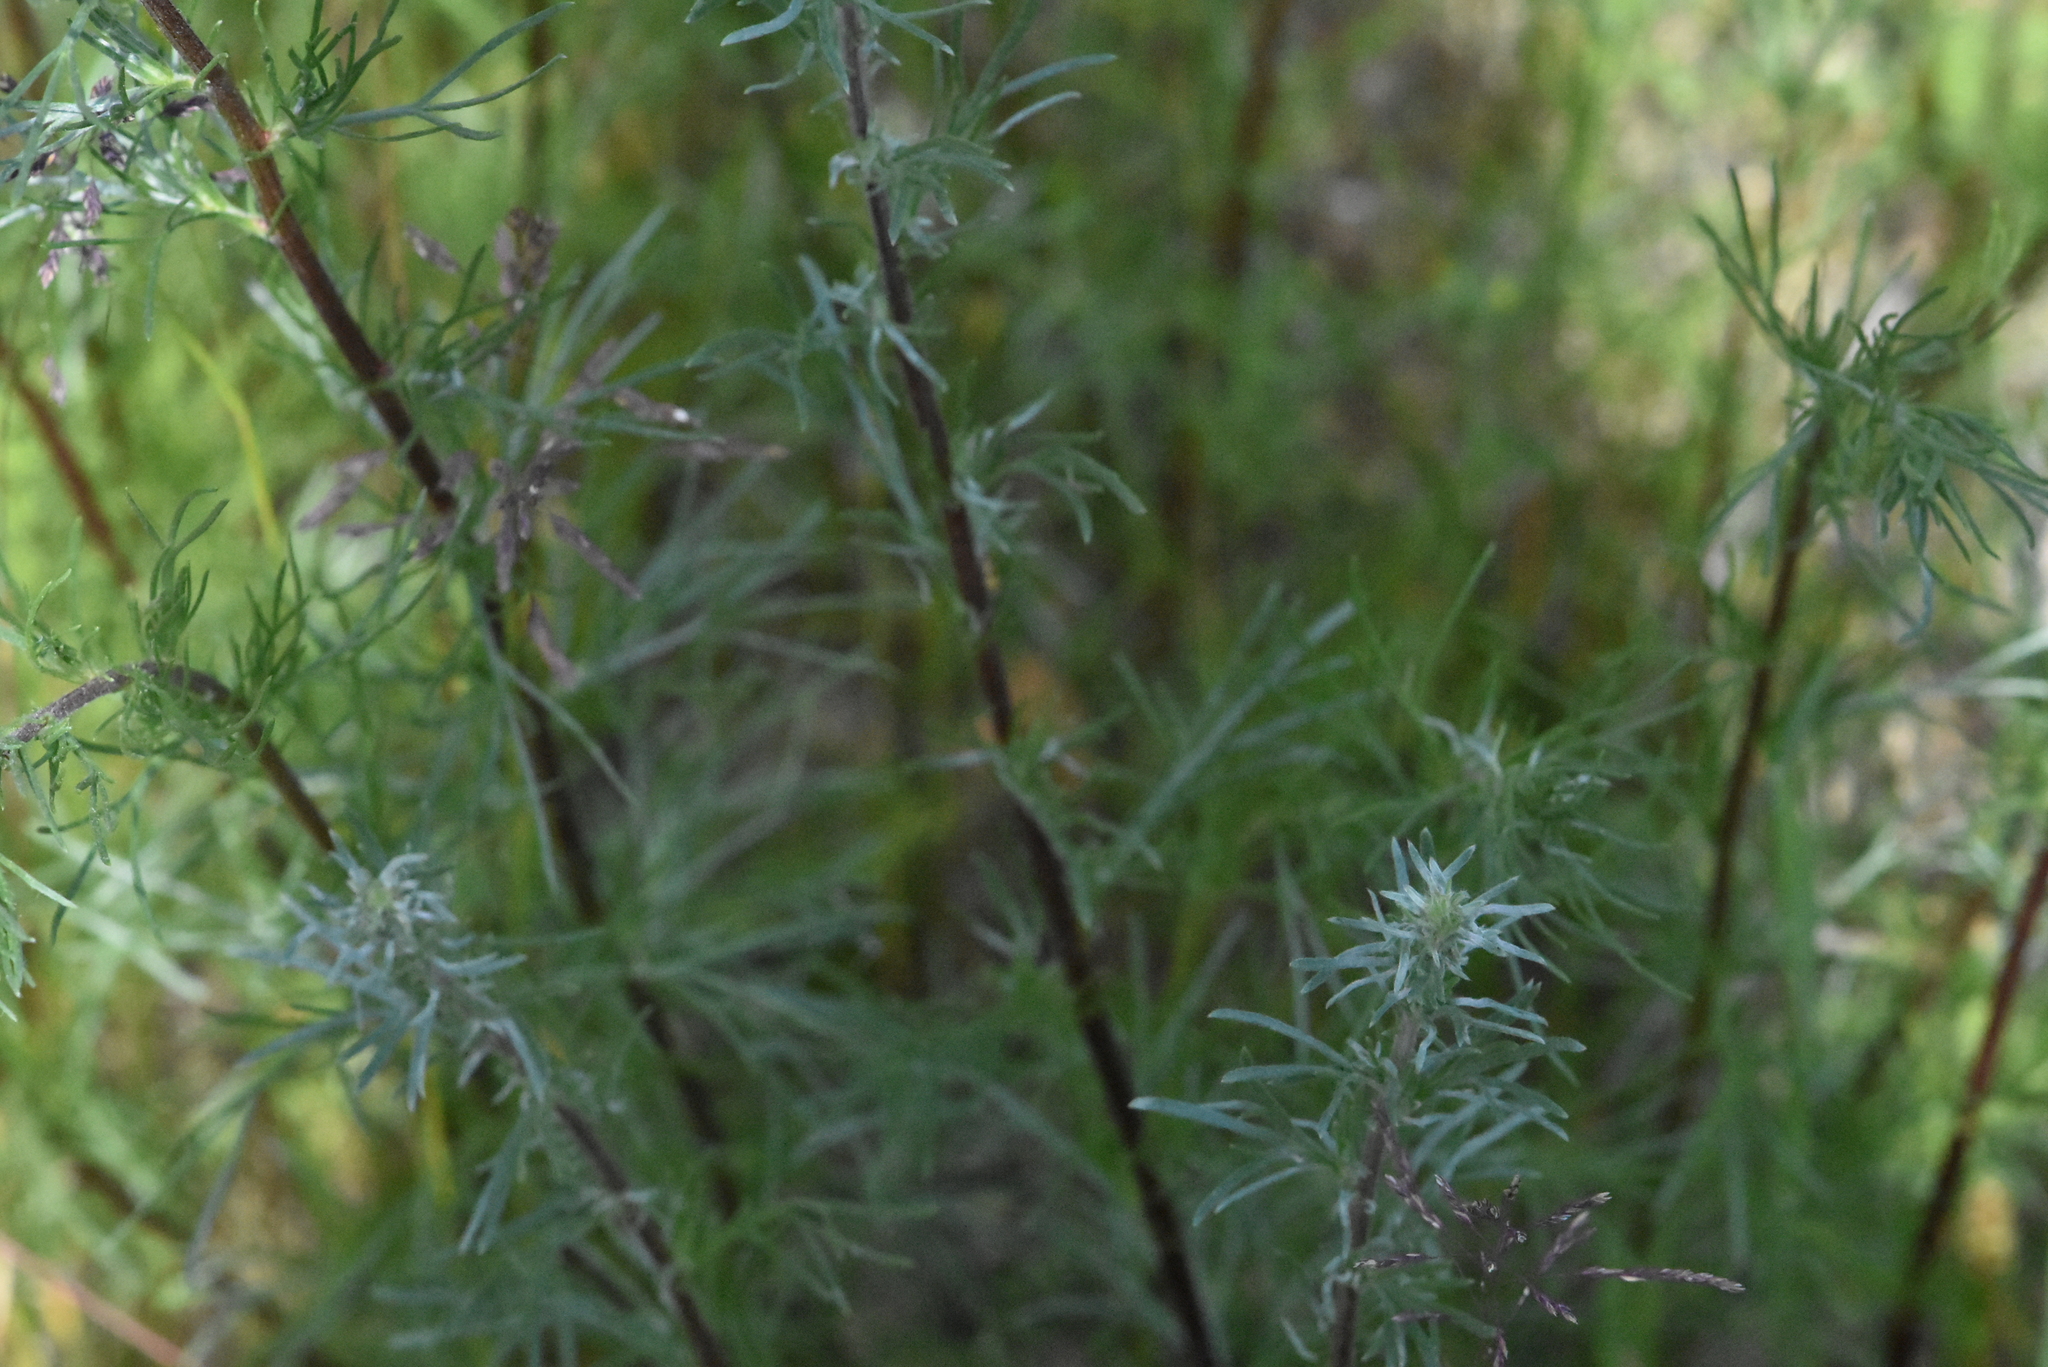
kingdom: Plantae
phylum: Tracheophyta
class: Magnoliopsida
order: Asterales
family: Asteraceae
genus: Artemisia
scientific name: Artemisia campestris
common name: Field wormwood
